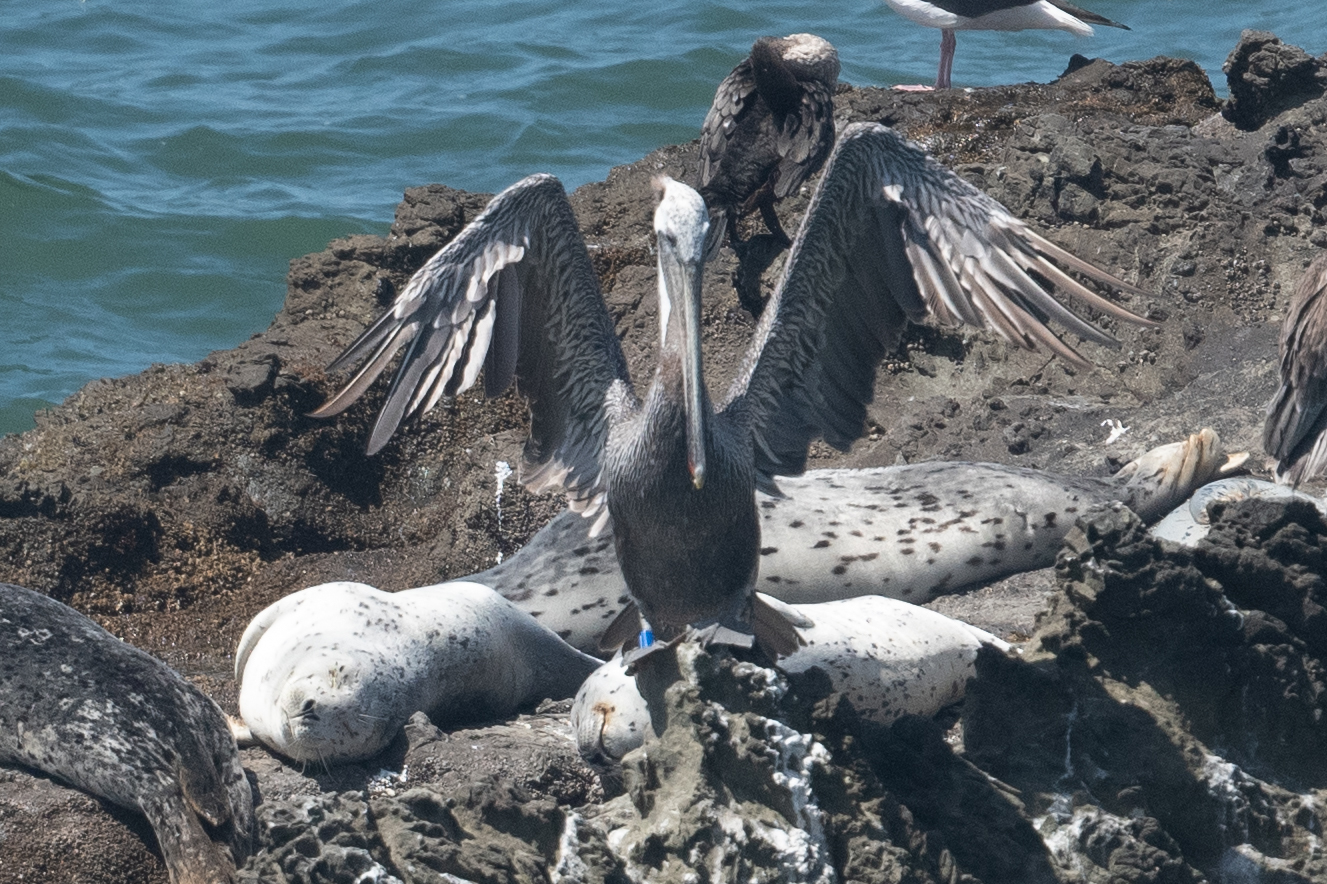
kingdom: Animalia
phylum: Chordata
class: Aves
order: Pelecaniformes
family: Pelecanidae
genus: Pelecanus
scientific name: Pelecanus occidentalis
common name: Brown pelican
